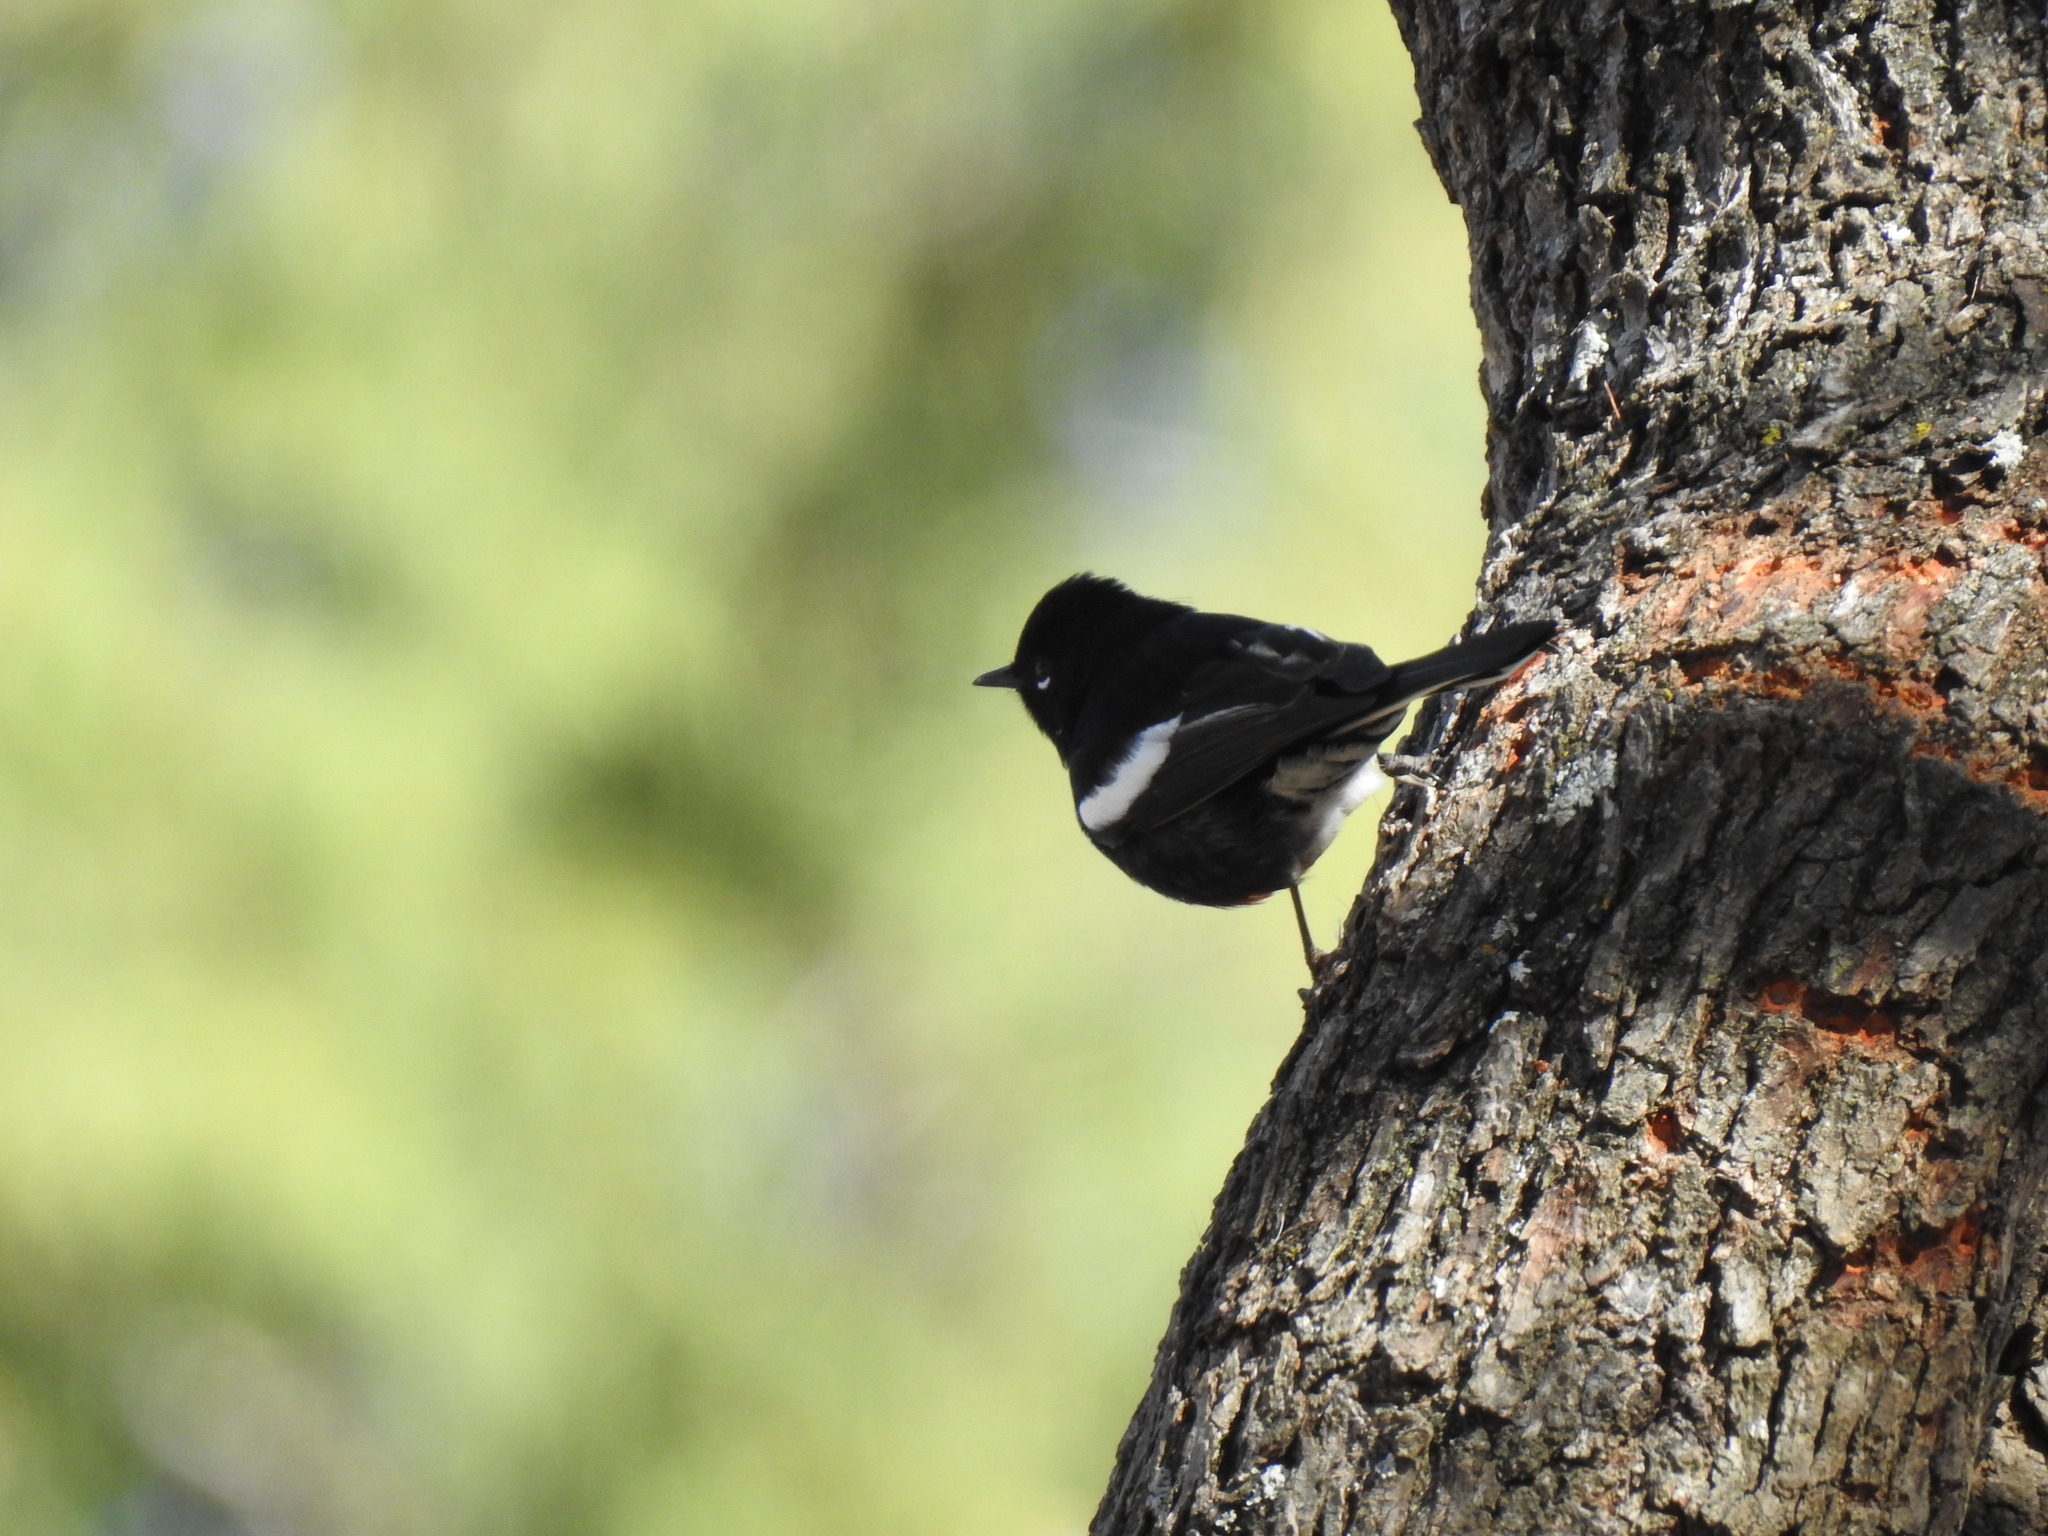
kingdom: Animalia
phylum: Chordata
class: Aves
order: Passeriformes
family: Parulidae
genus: Myioborus
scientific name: Myioborus pictus
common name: Painted whitestart
